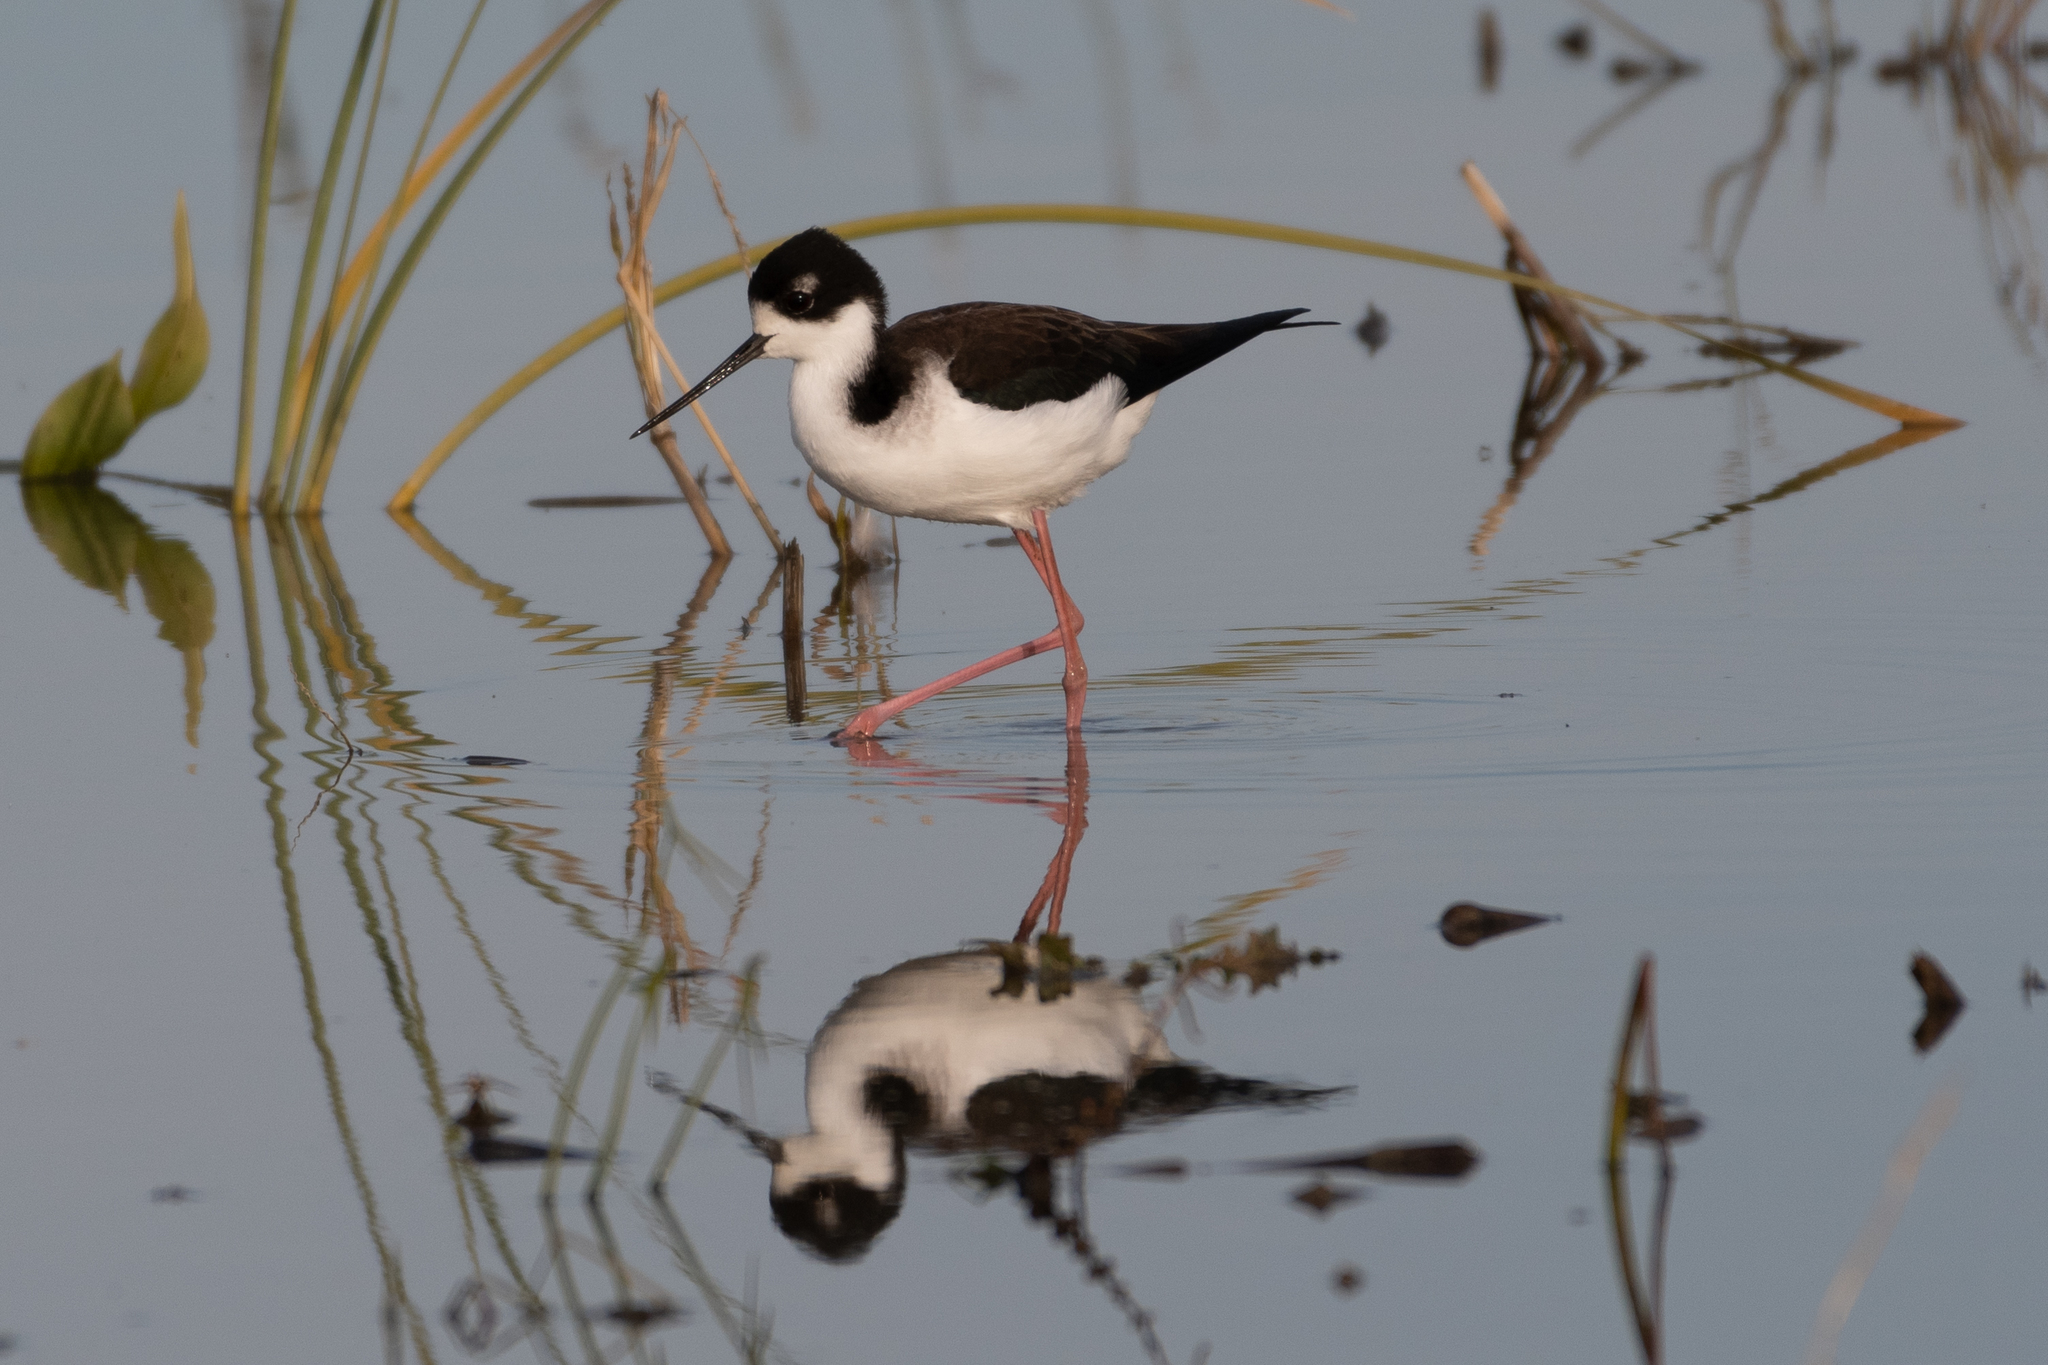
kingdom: Animalia
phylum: Chordata
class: Aves
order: Charadriiformes
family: Recurvirostridae
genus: Himantopus
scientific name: Himantopus mexicanus
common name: Black-necked stilt
